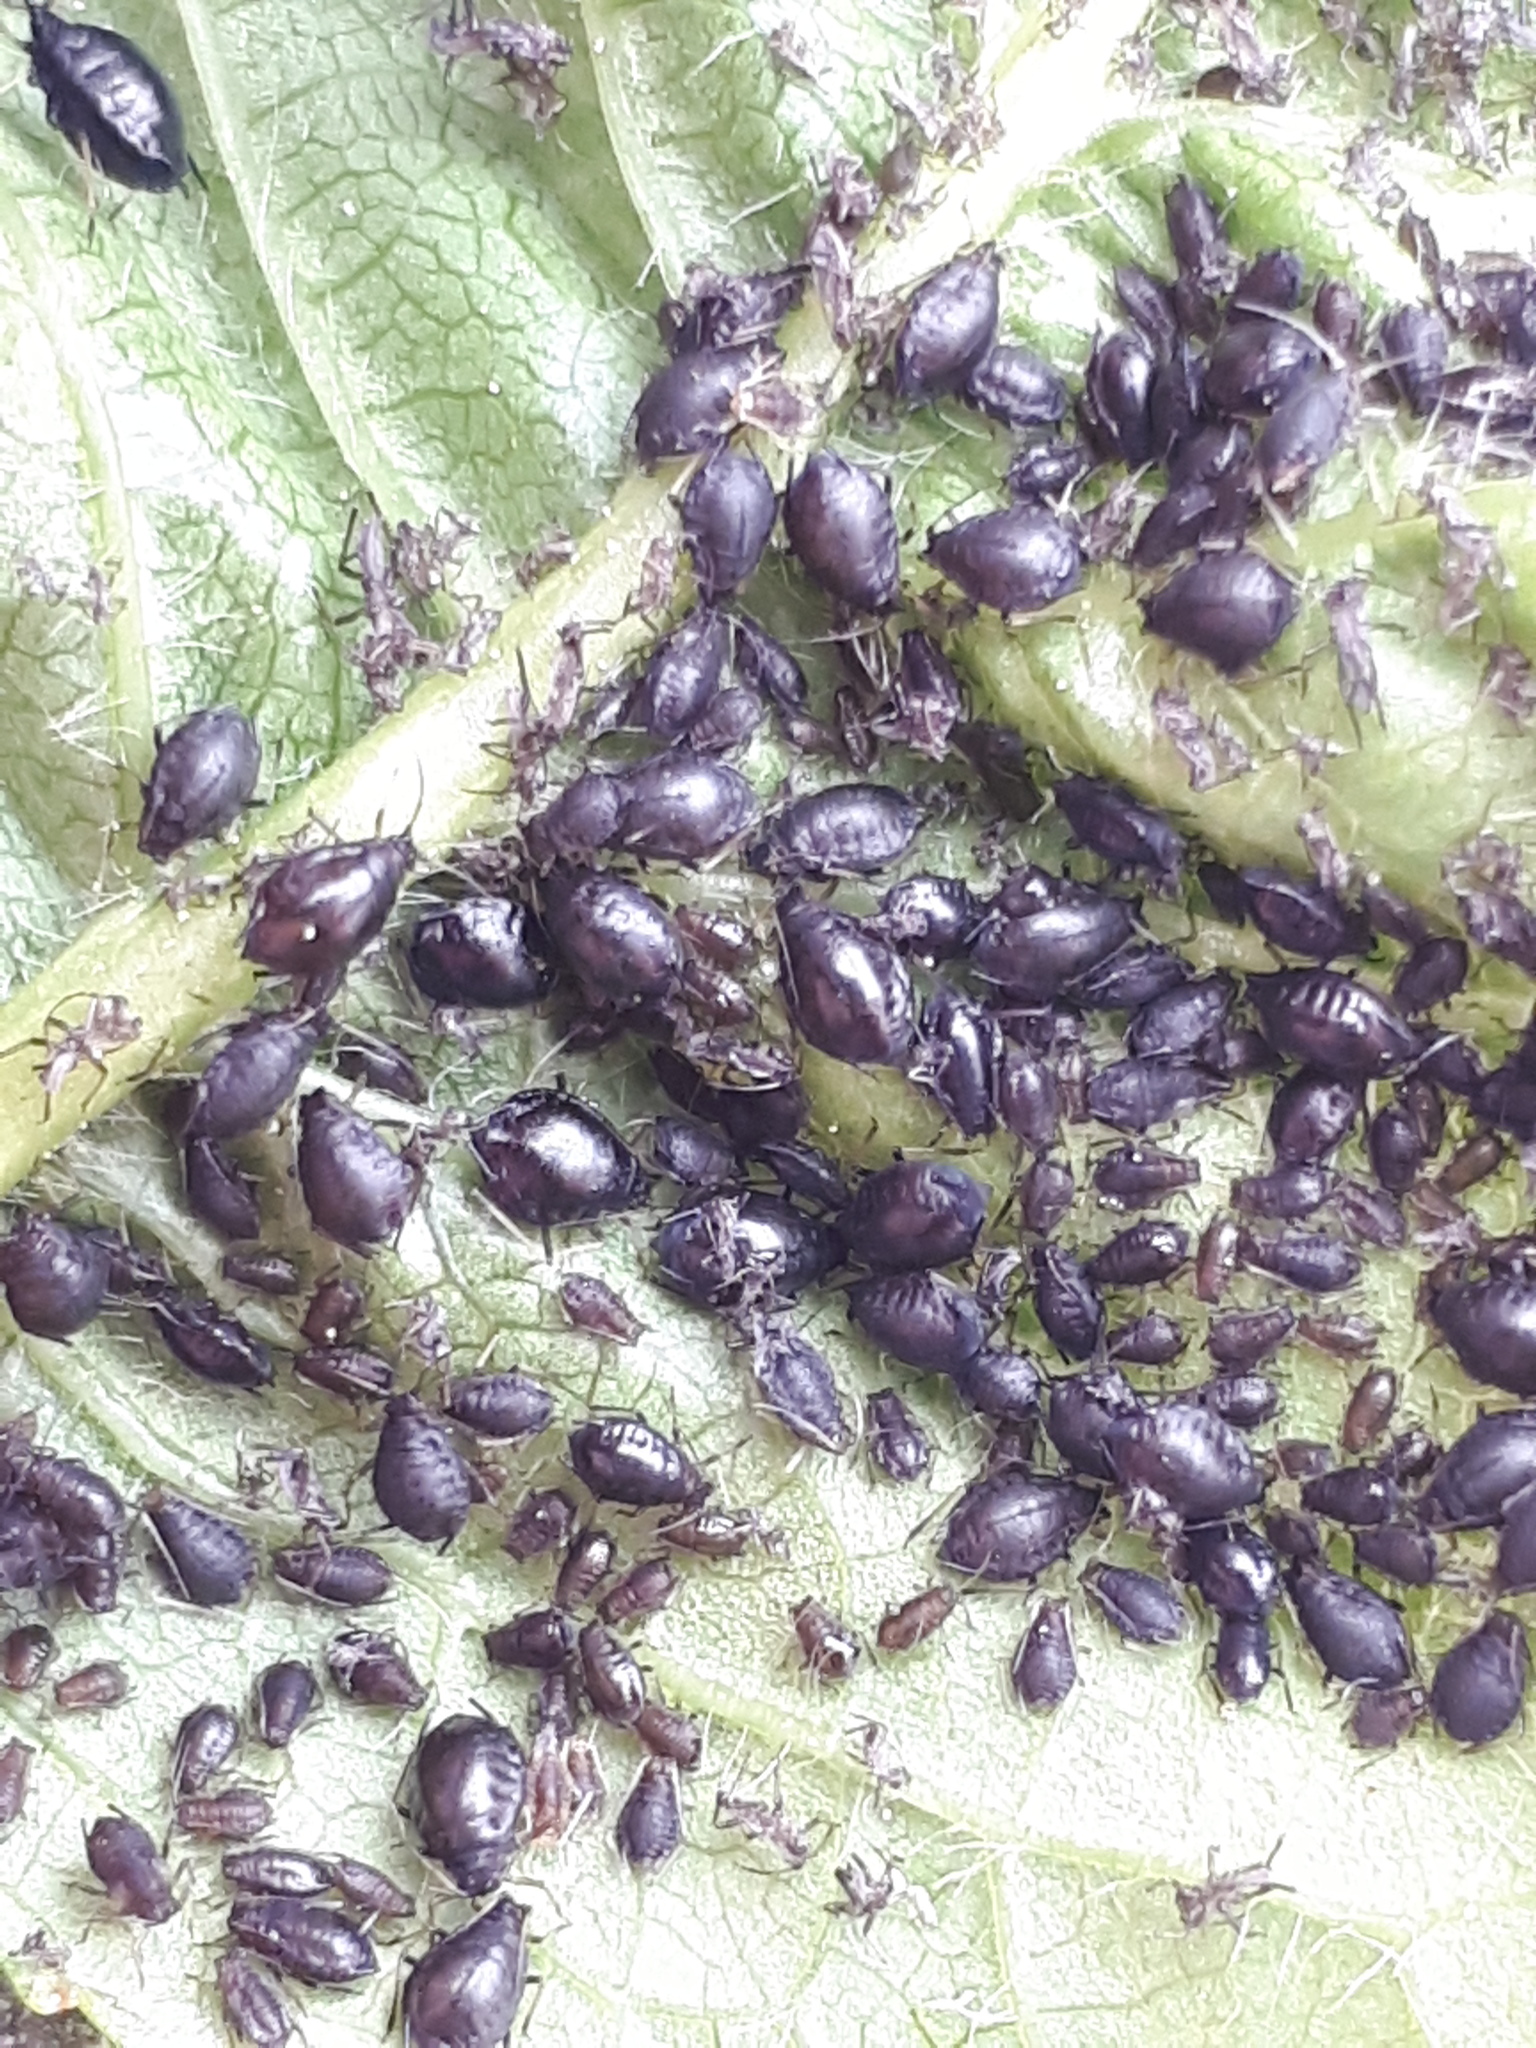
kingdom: Animalia
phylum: Arthropoda
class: Insecta
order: Hemiptera
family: Aphididae
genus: Myzus
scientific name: Myzus cerasi
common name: Black cherry aphid
